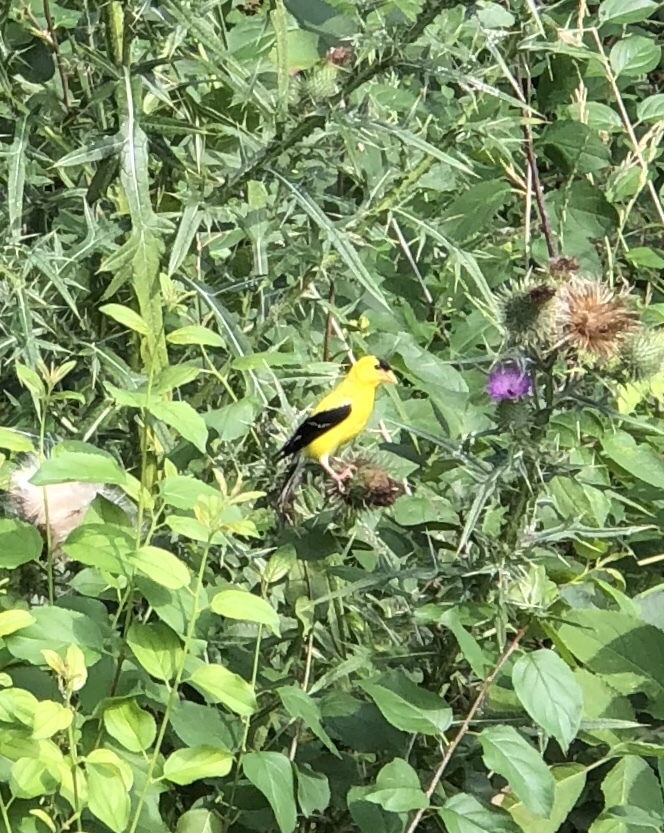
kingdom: Animalia
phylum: Chordata
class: Aves
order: Passeriformes
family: Fringillidae
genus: Spinus
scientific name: Spinus tristis
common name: American goldfinch
